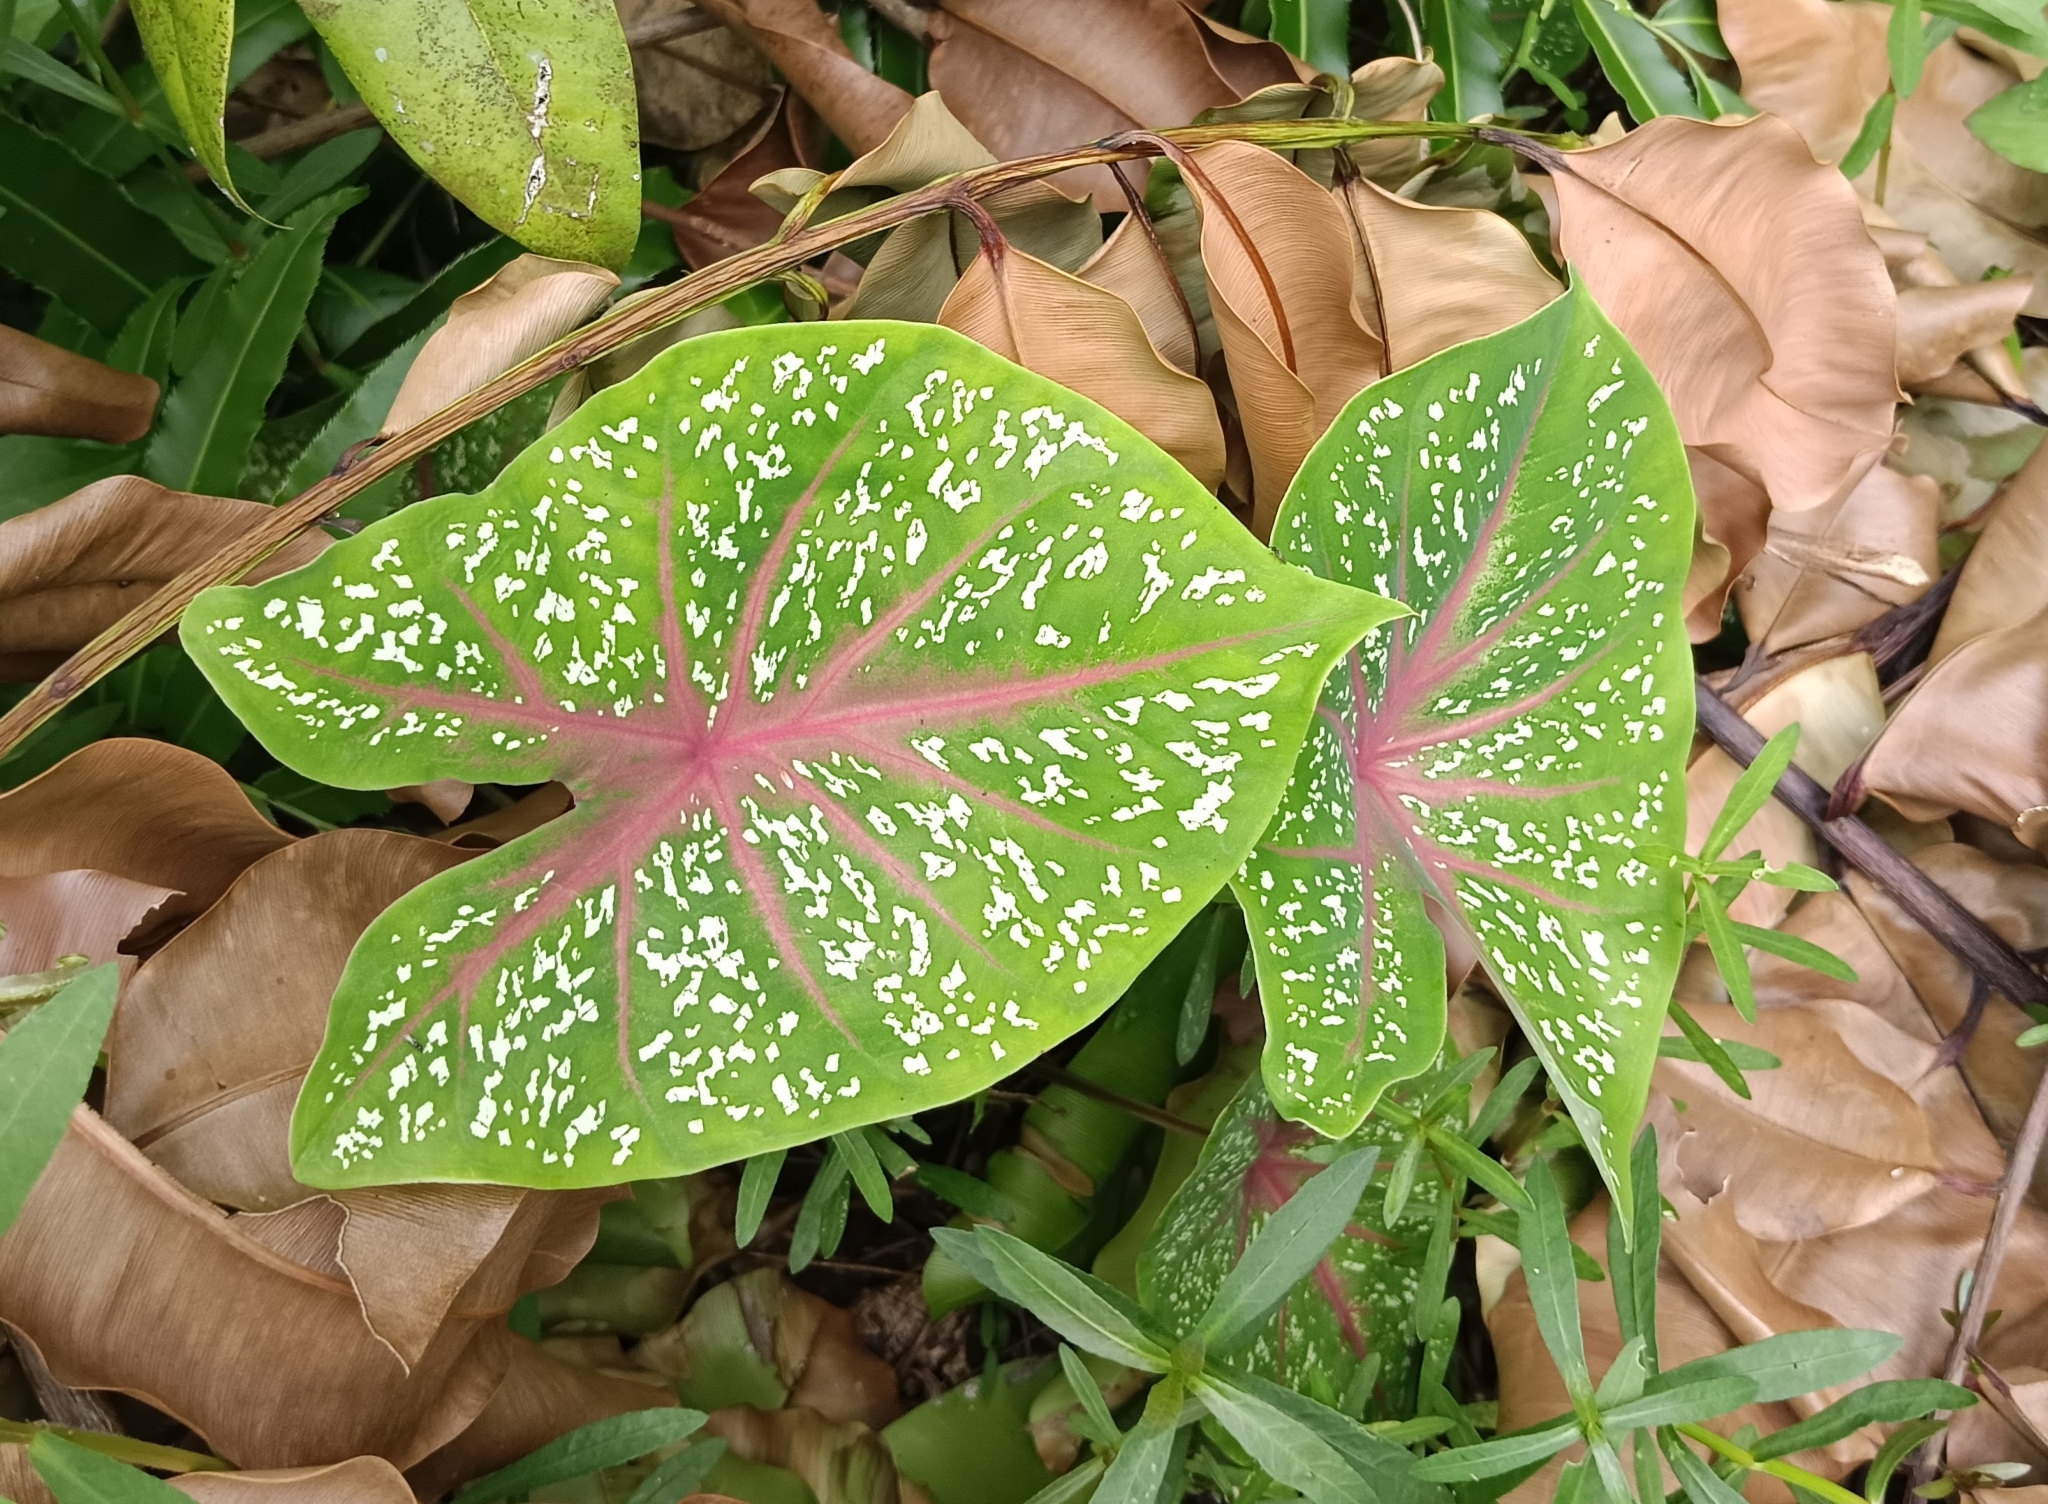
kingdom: Plantae
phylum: Tracheophyta
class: Liliopsida
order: Alismatales
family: Araceae
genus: Caladium
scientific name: Caladium bicolor
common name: Artist's pallet
